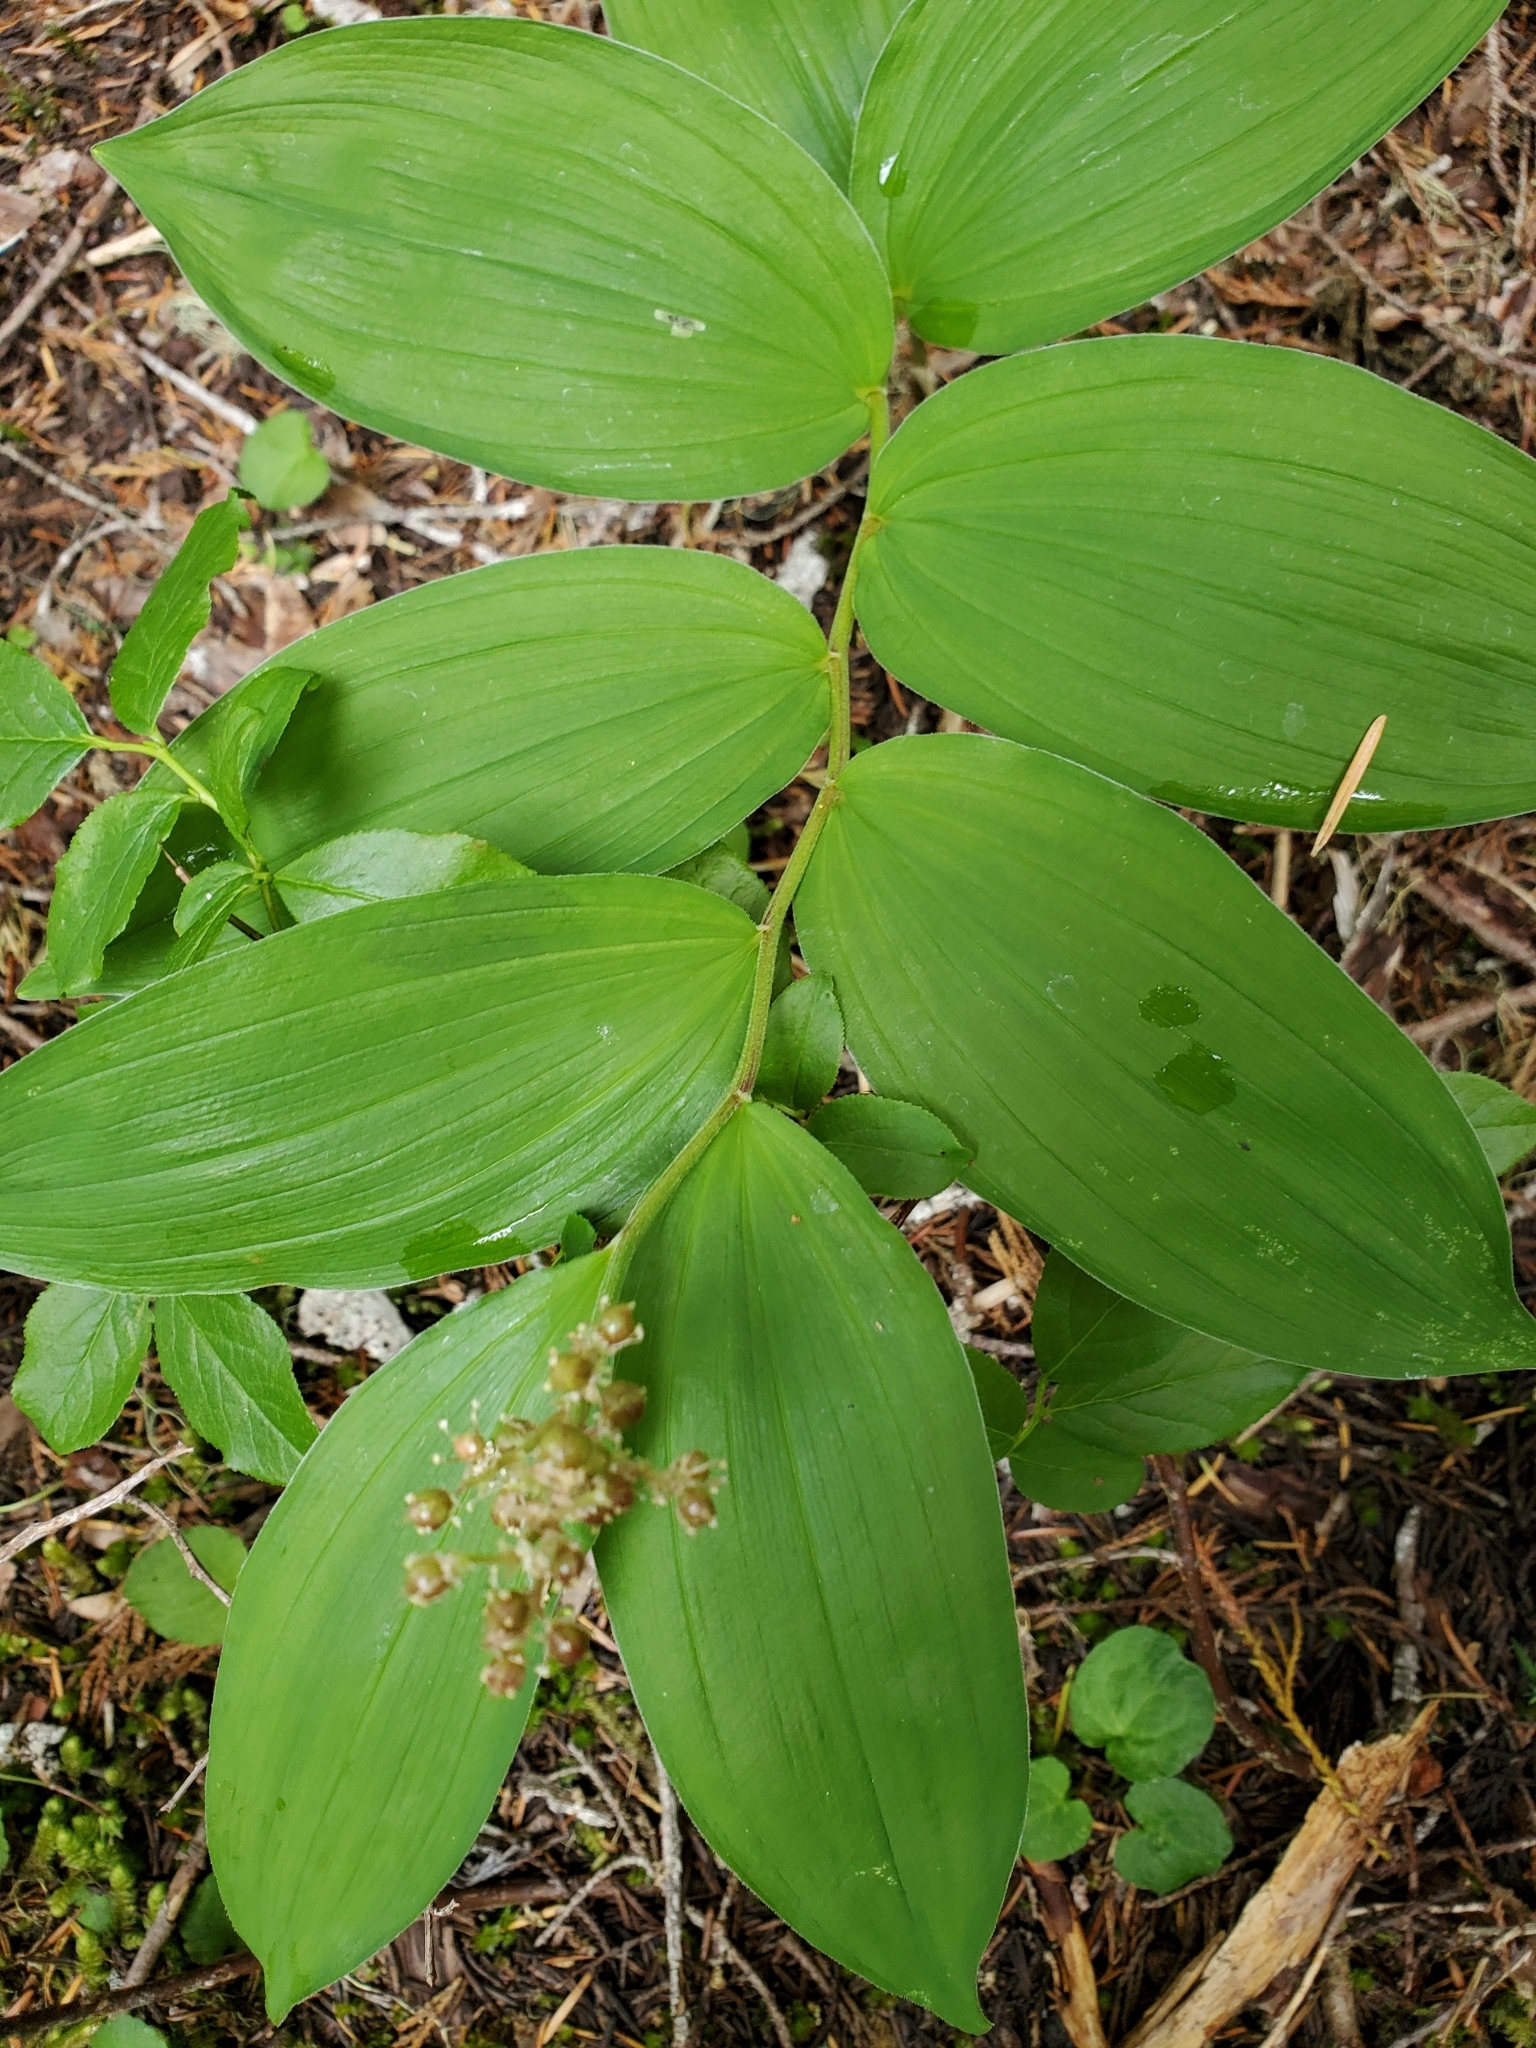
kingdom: Plantae
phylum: Tracheophyta
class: Liliopsida
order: Asparagales
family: Asparagaceae
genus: Maianthemum
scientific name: Maianthemum racemosum
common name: False spikenard
